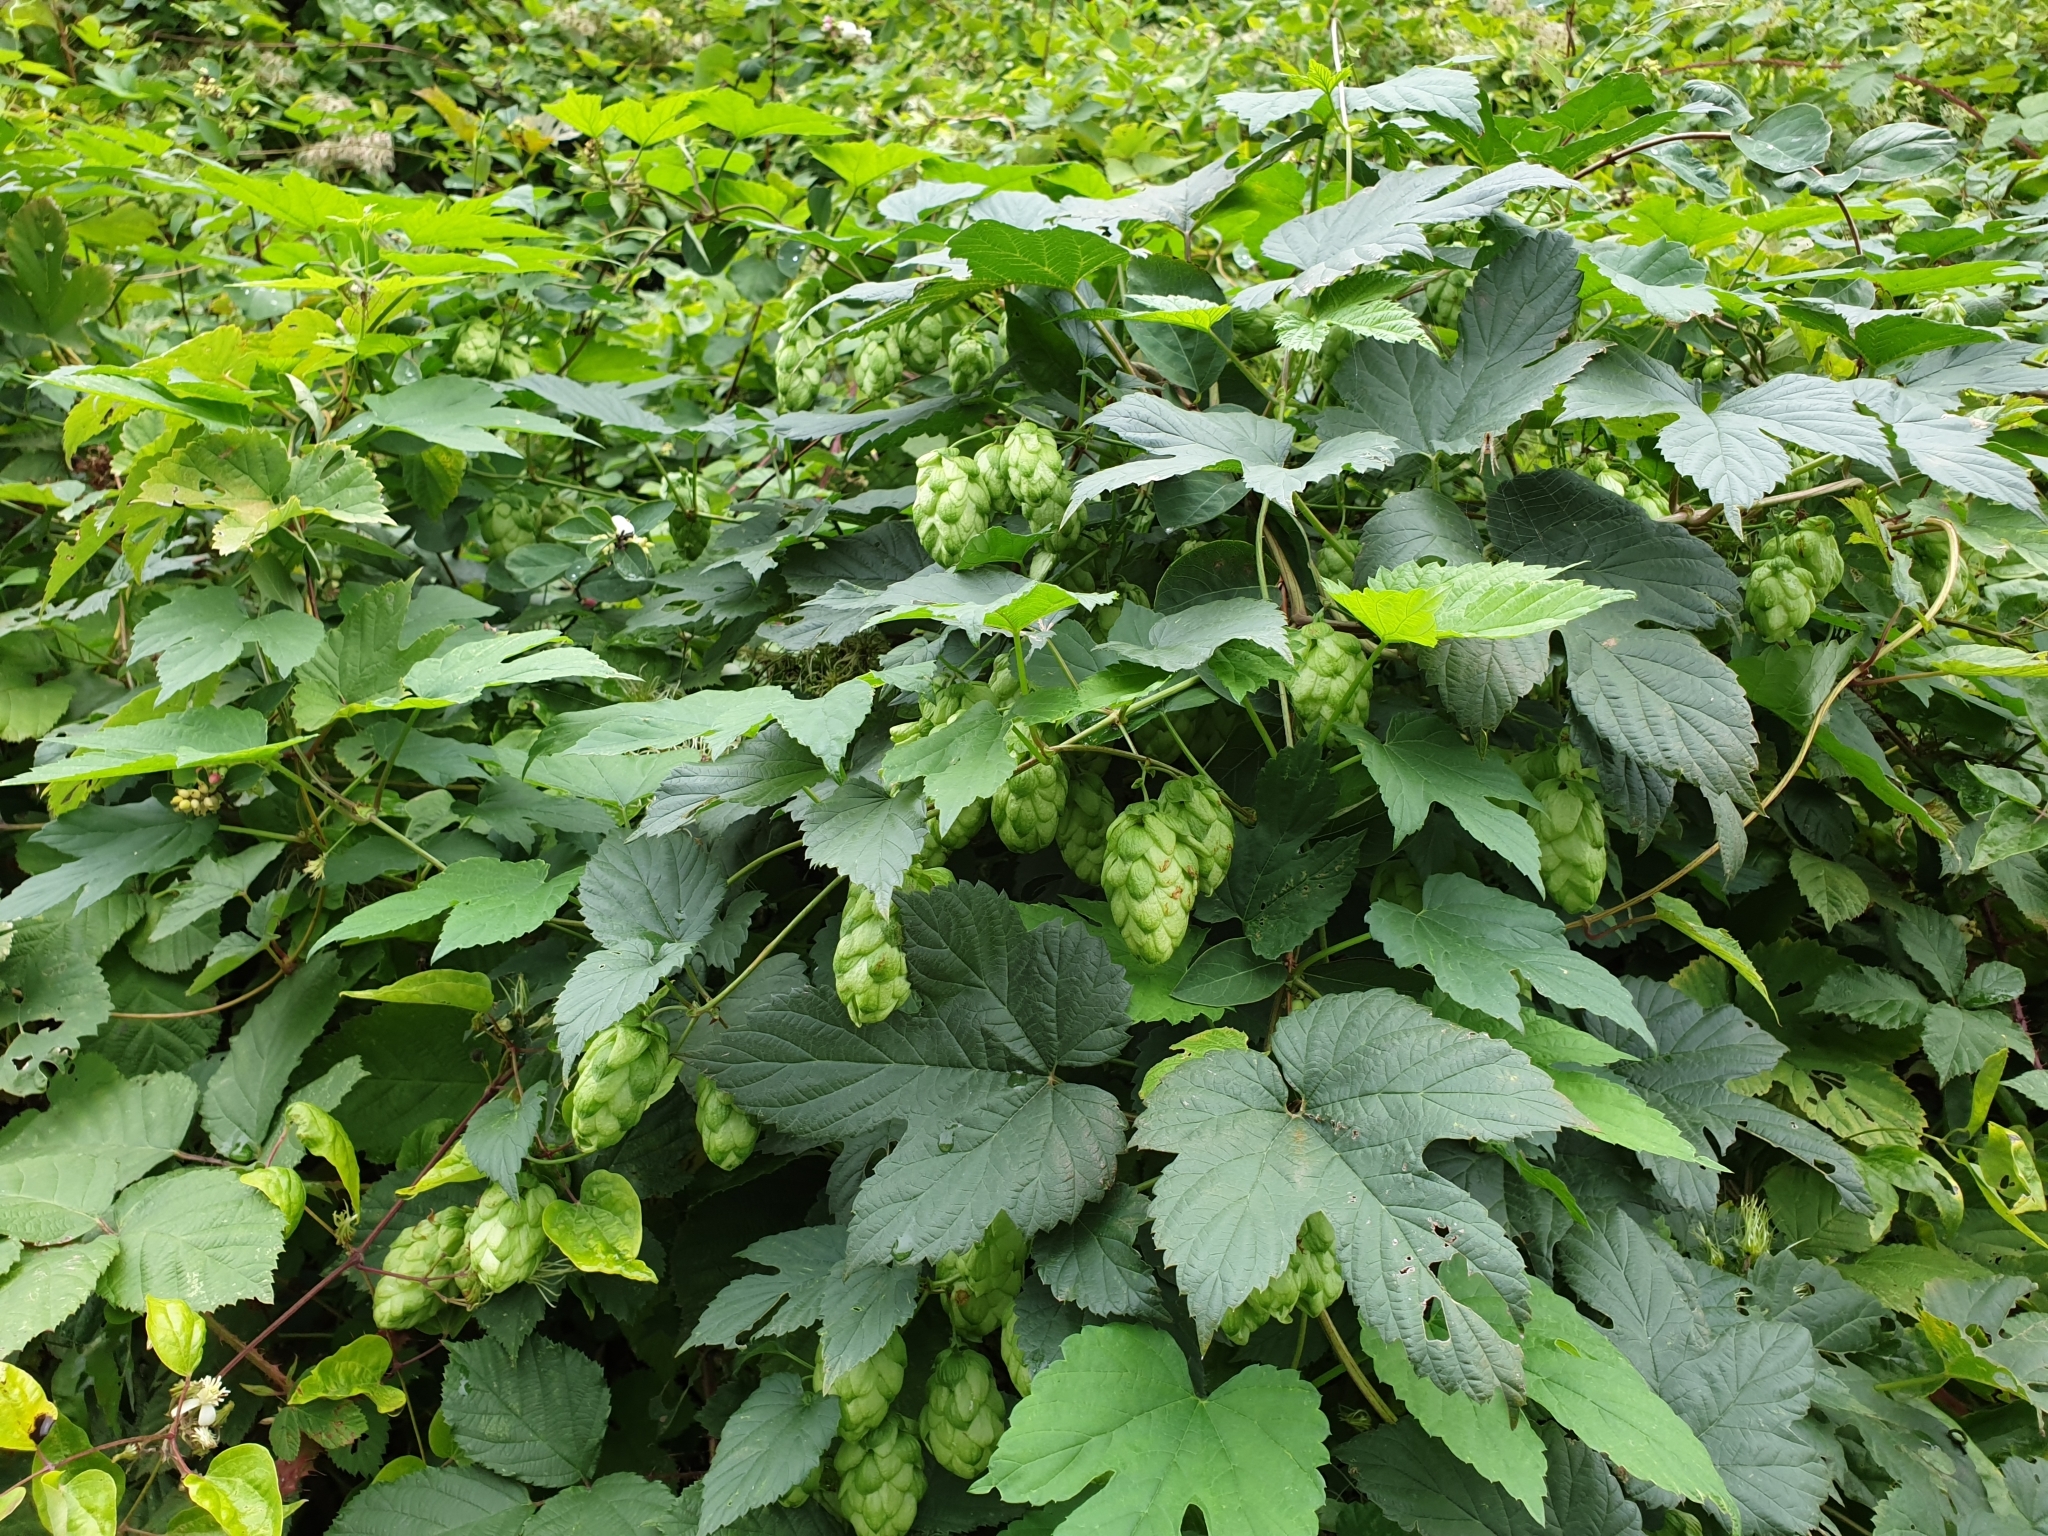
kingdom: Plantae
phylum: Tracheophyta
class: Magnoliopsida
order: Rosales
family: Cannabaceae
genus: Humulus
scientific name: Humulus lupulus
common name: Hop
